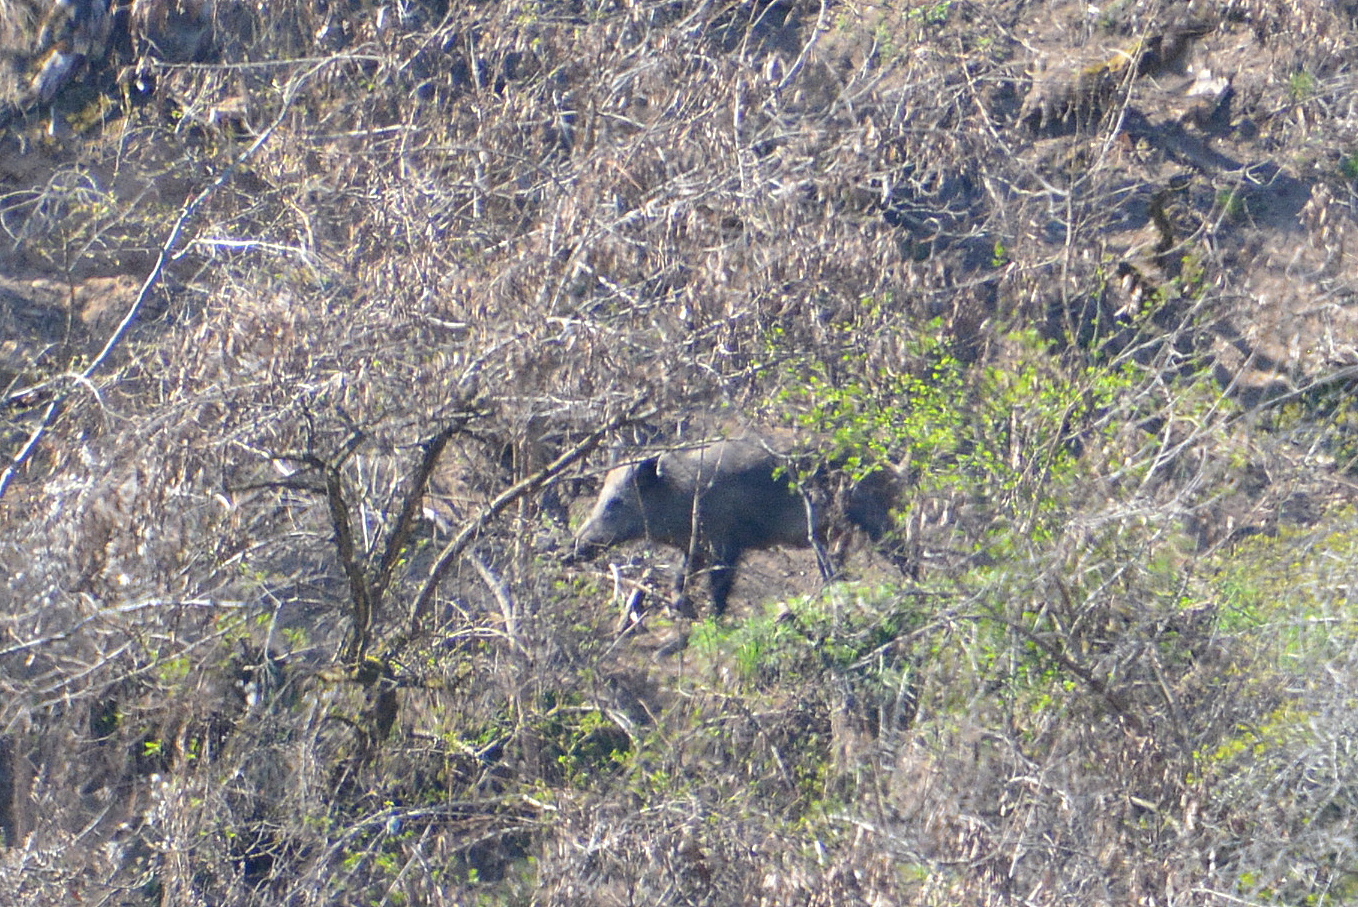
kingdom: Animalia
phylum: Chordata
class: Mammalia
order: Artiodactyla
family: Suidae
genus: Sus
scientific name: Sus scrofa
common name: Wild boar
